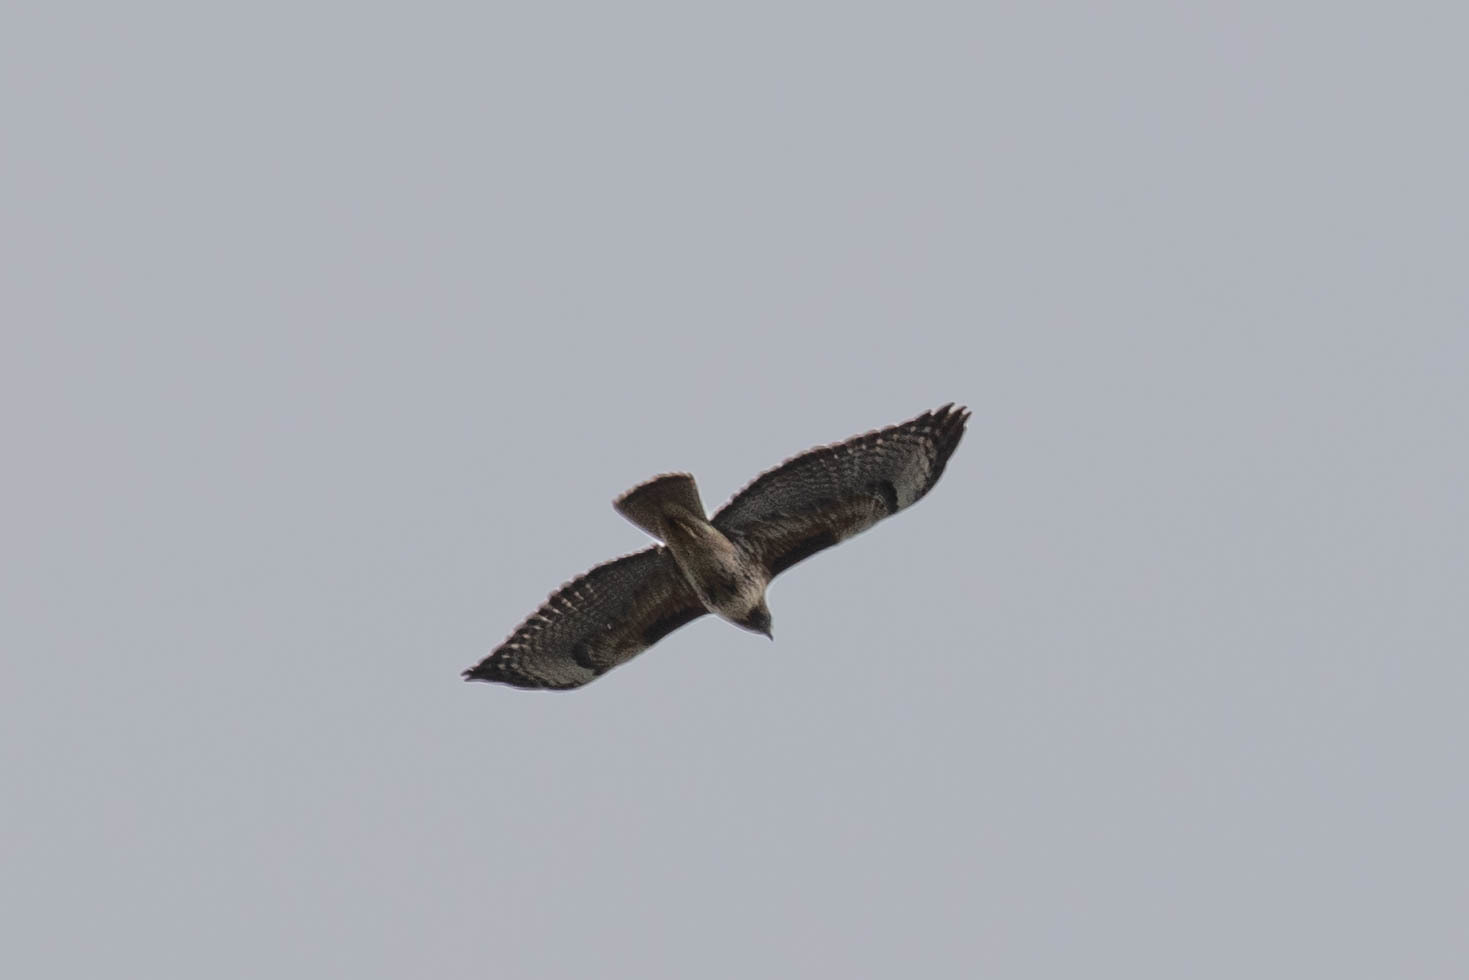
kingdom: Animalia
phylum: Chordata
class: Aves
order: Accipitriformes
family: Accipitridae
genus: Buteo
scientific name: Buteo jamaicensis
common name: Red-tailed hawk
